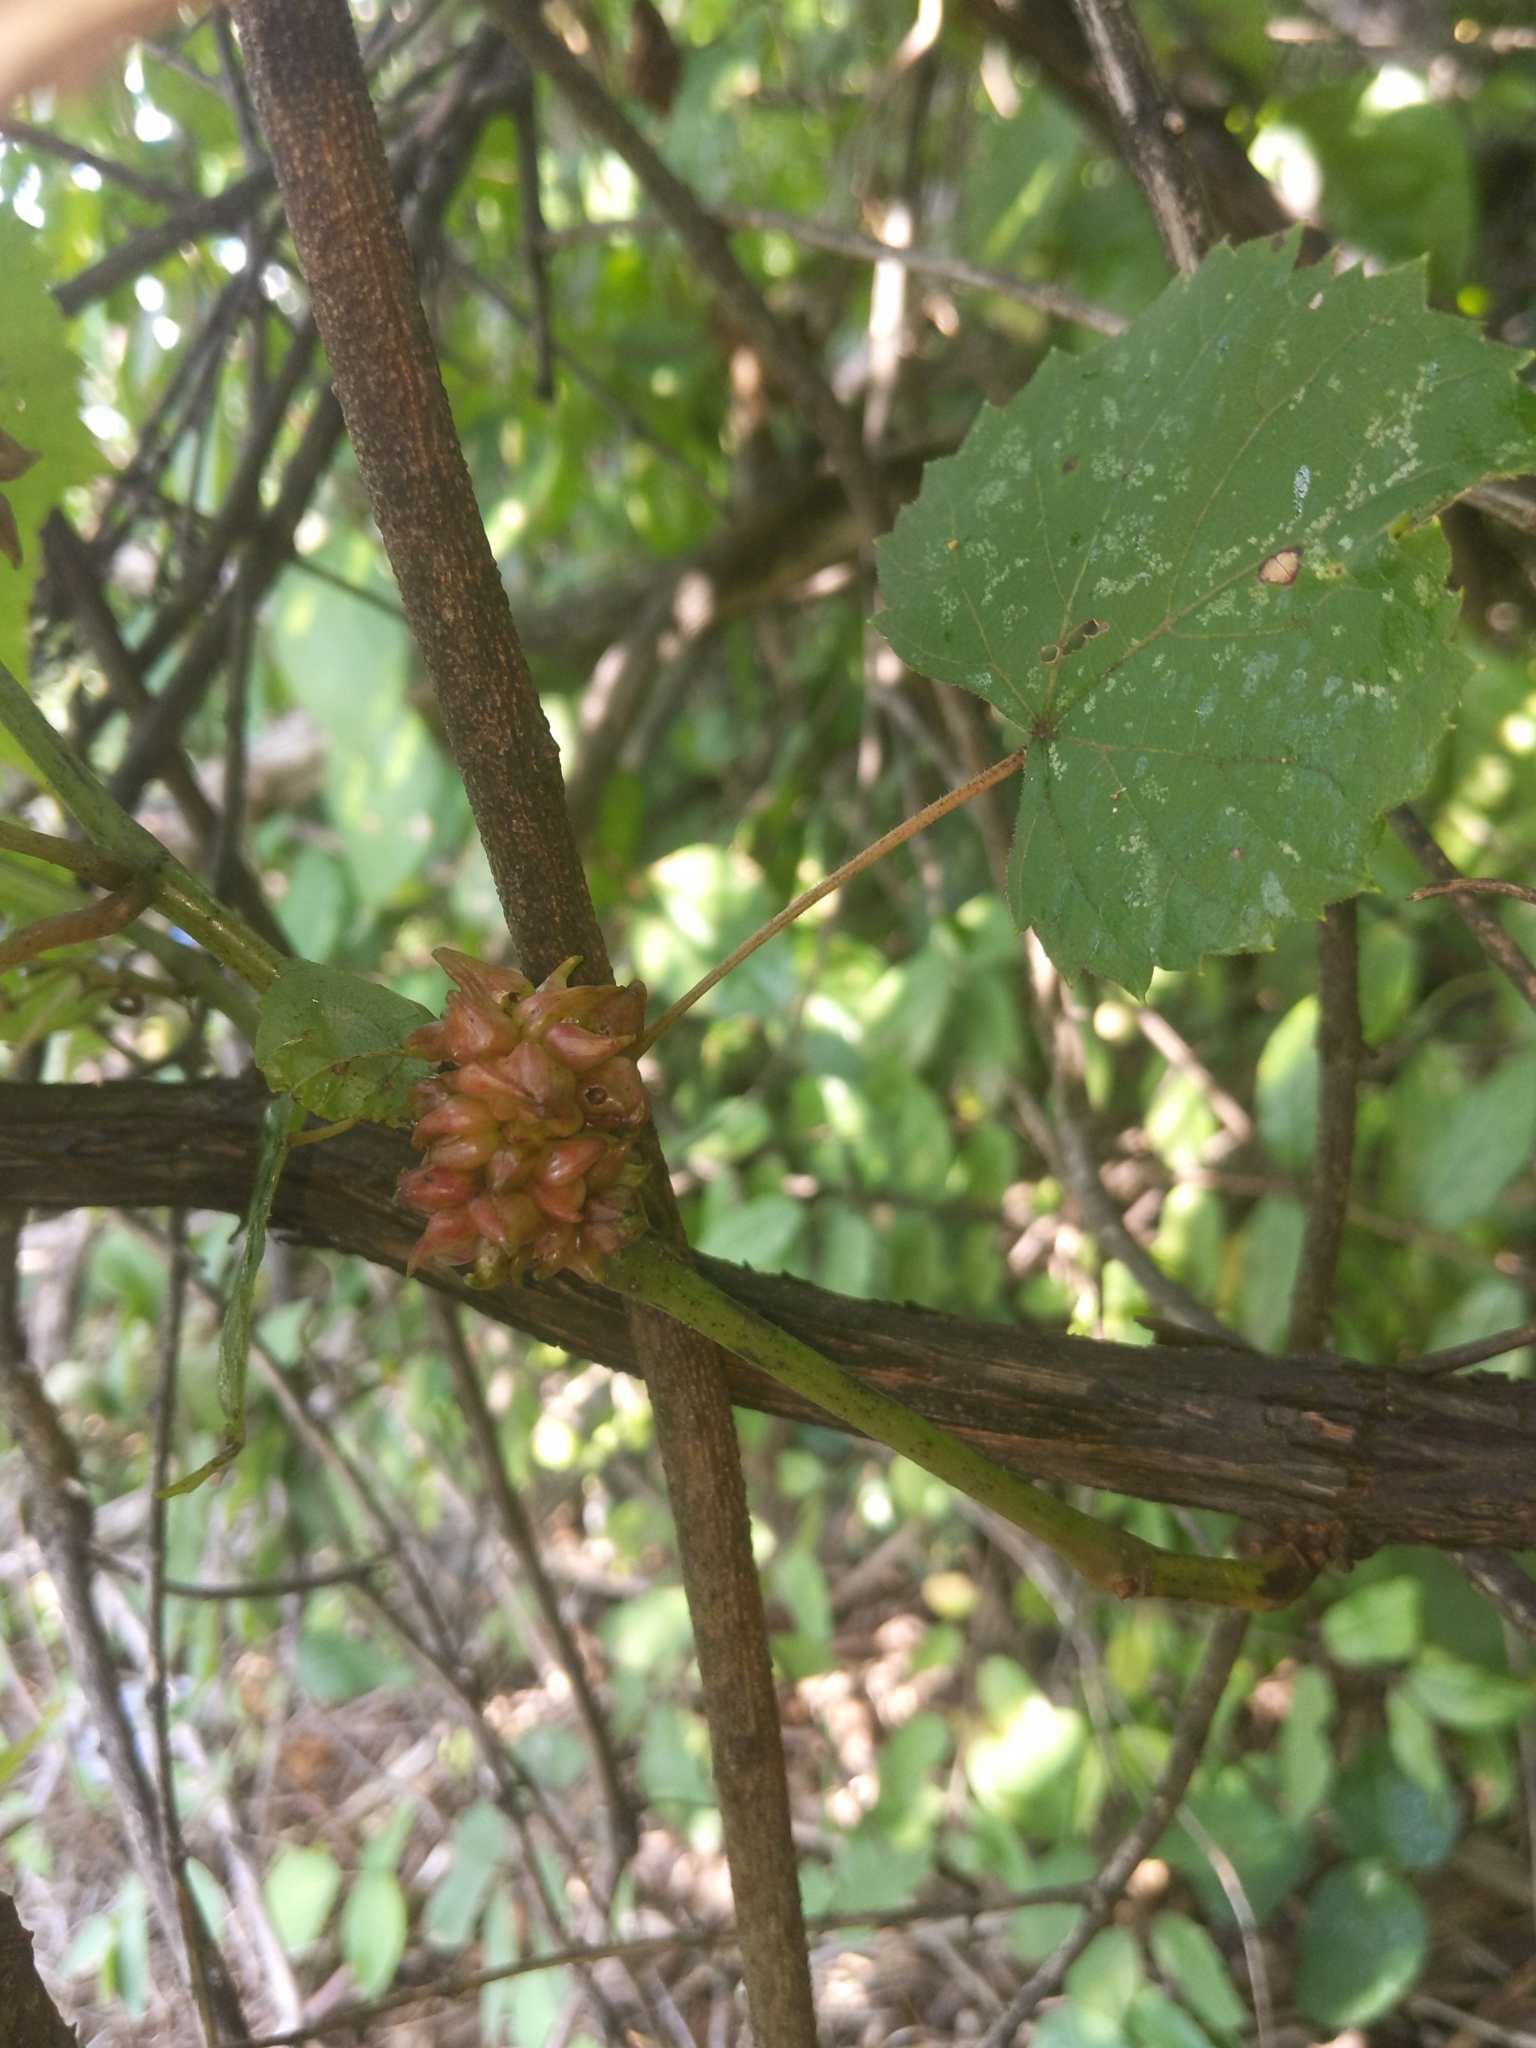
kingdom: Animalia
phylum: Arthropoda
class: Insecta
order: Diptera
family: Cecidomyiidae
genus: Ampelomyia
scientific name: Ampelomyia vitiscoryloides
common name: Grape filbert gall
